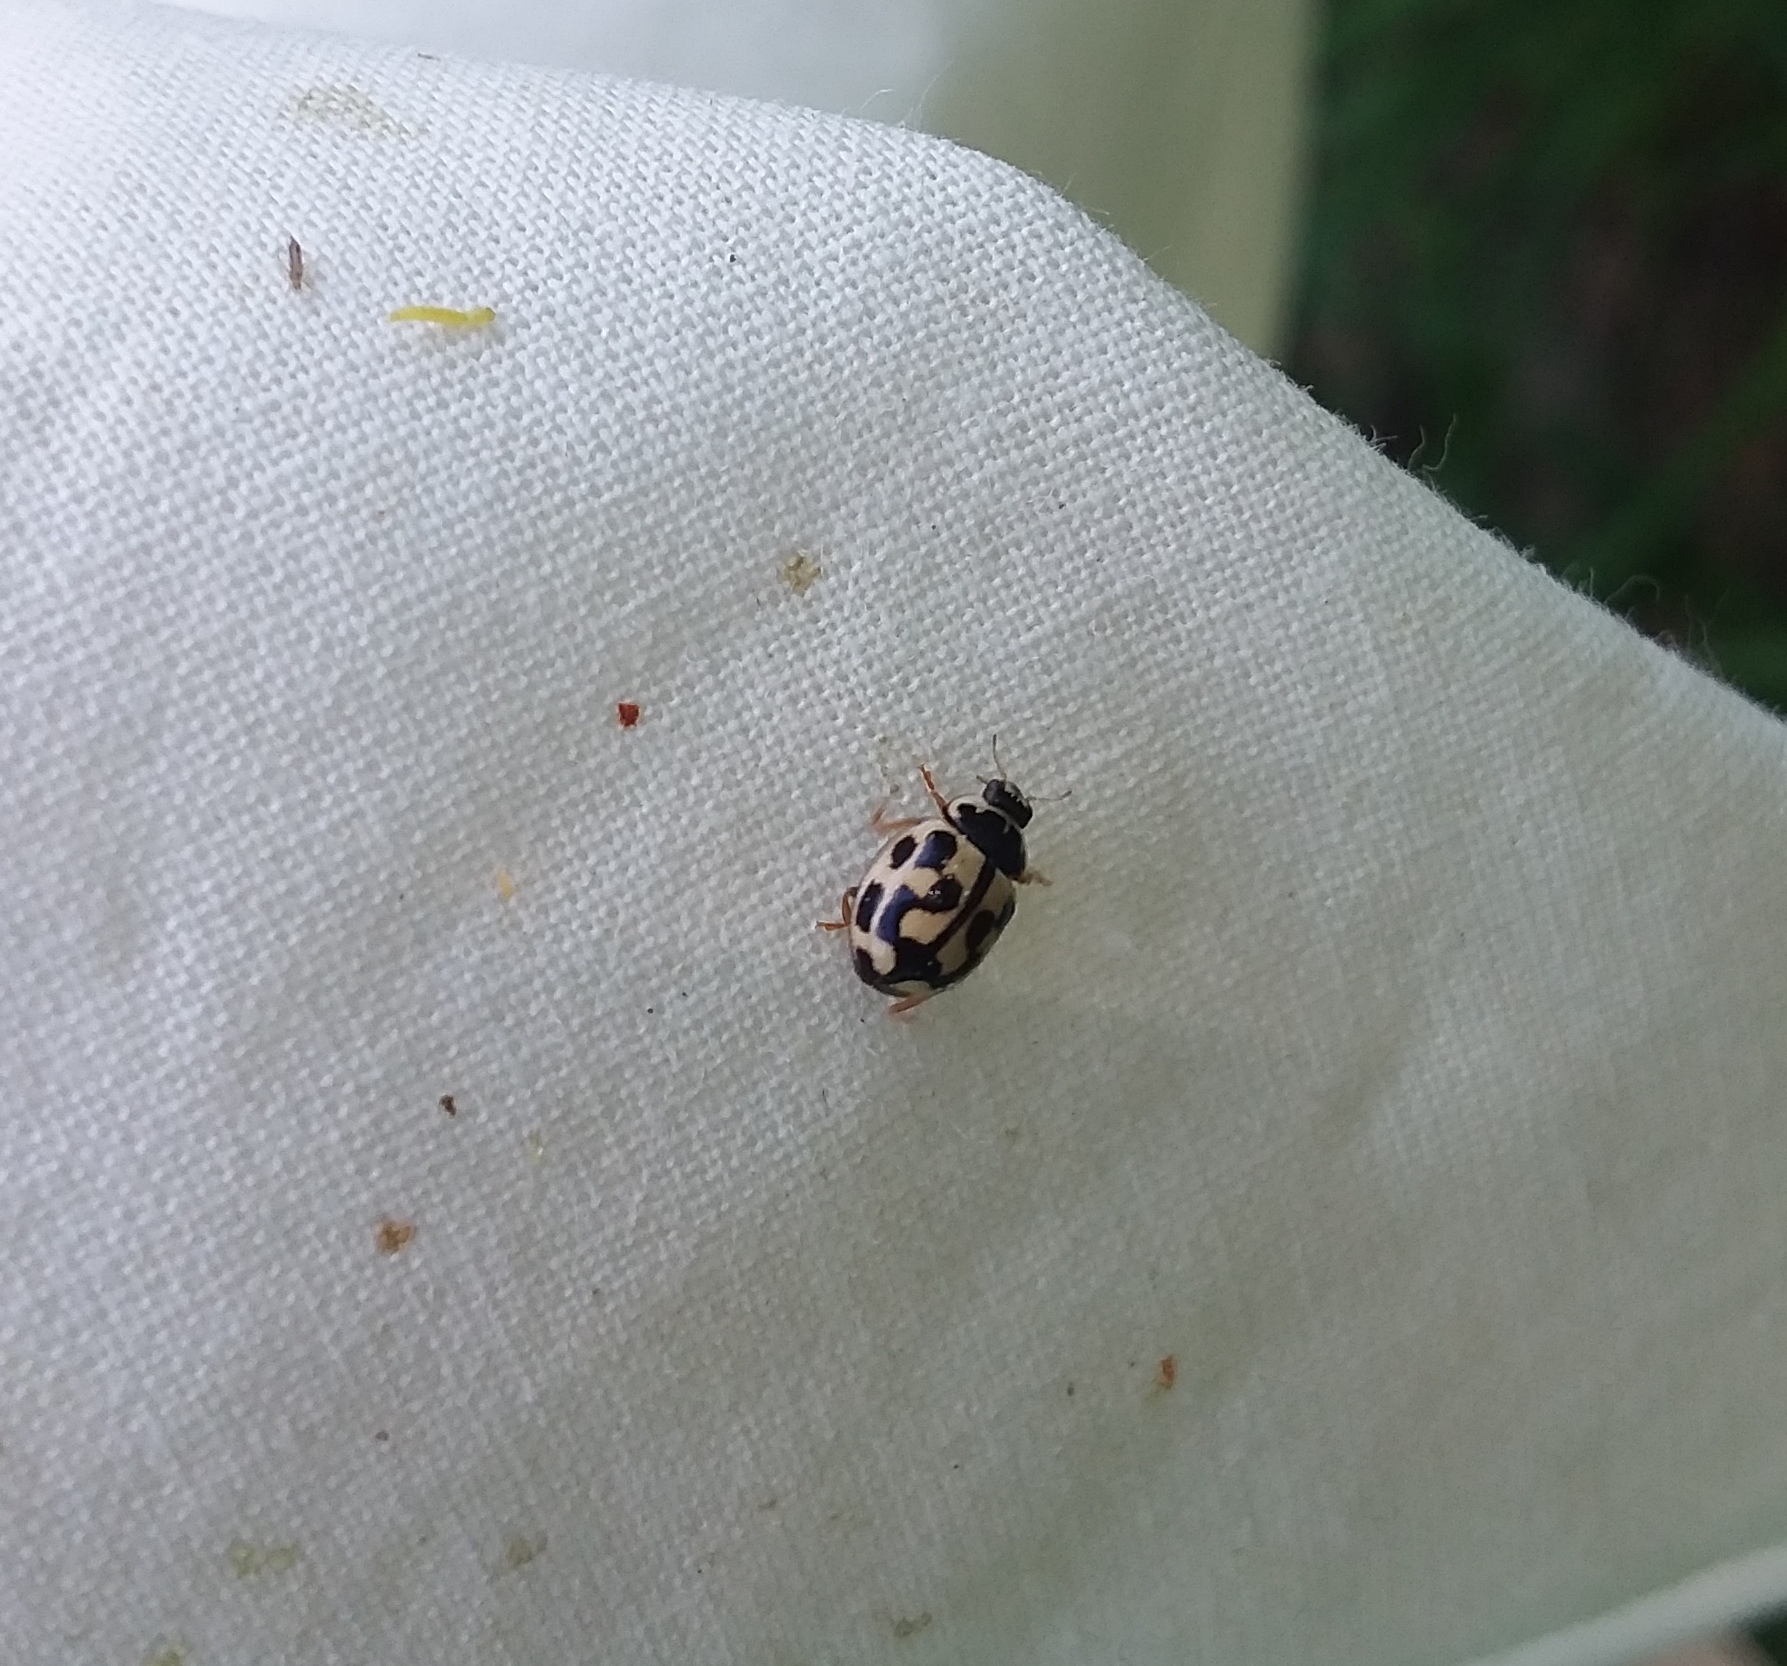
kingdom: Animalia
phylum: Arthropoda
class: Insecta
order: Coleoptera
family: Coccinellidae
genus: Propylaea
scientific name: Propylaea quatuordecimpunctata
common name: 14-spotted ladybird beetle
